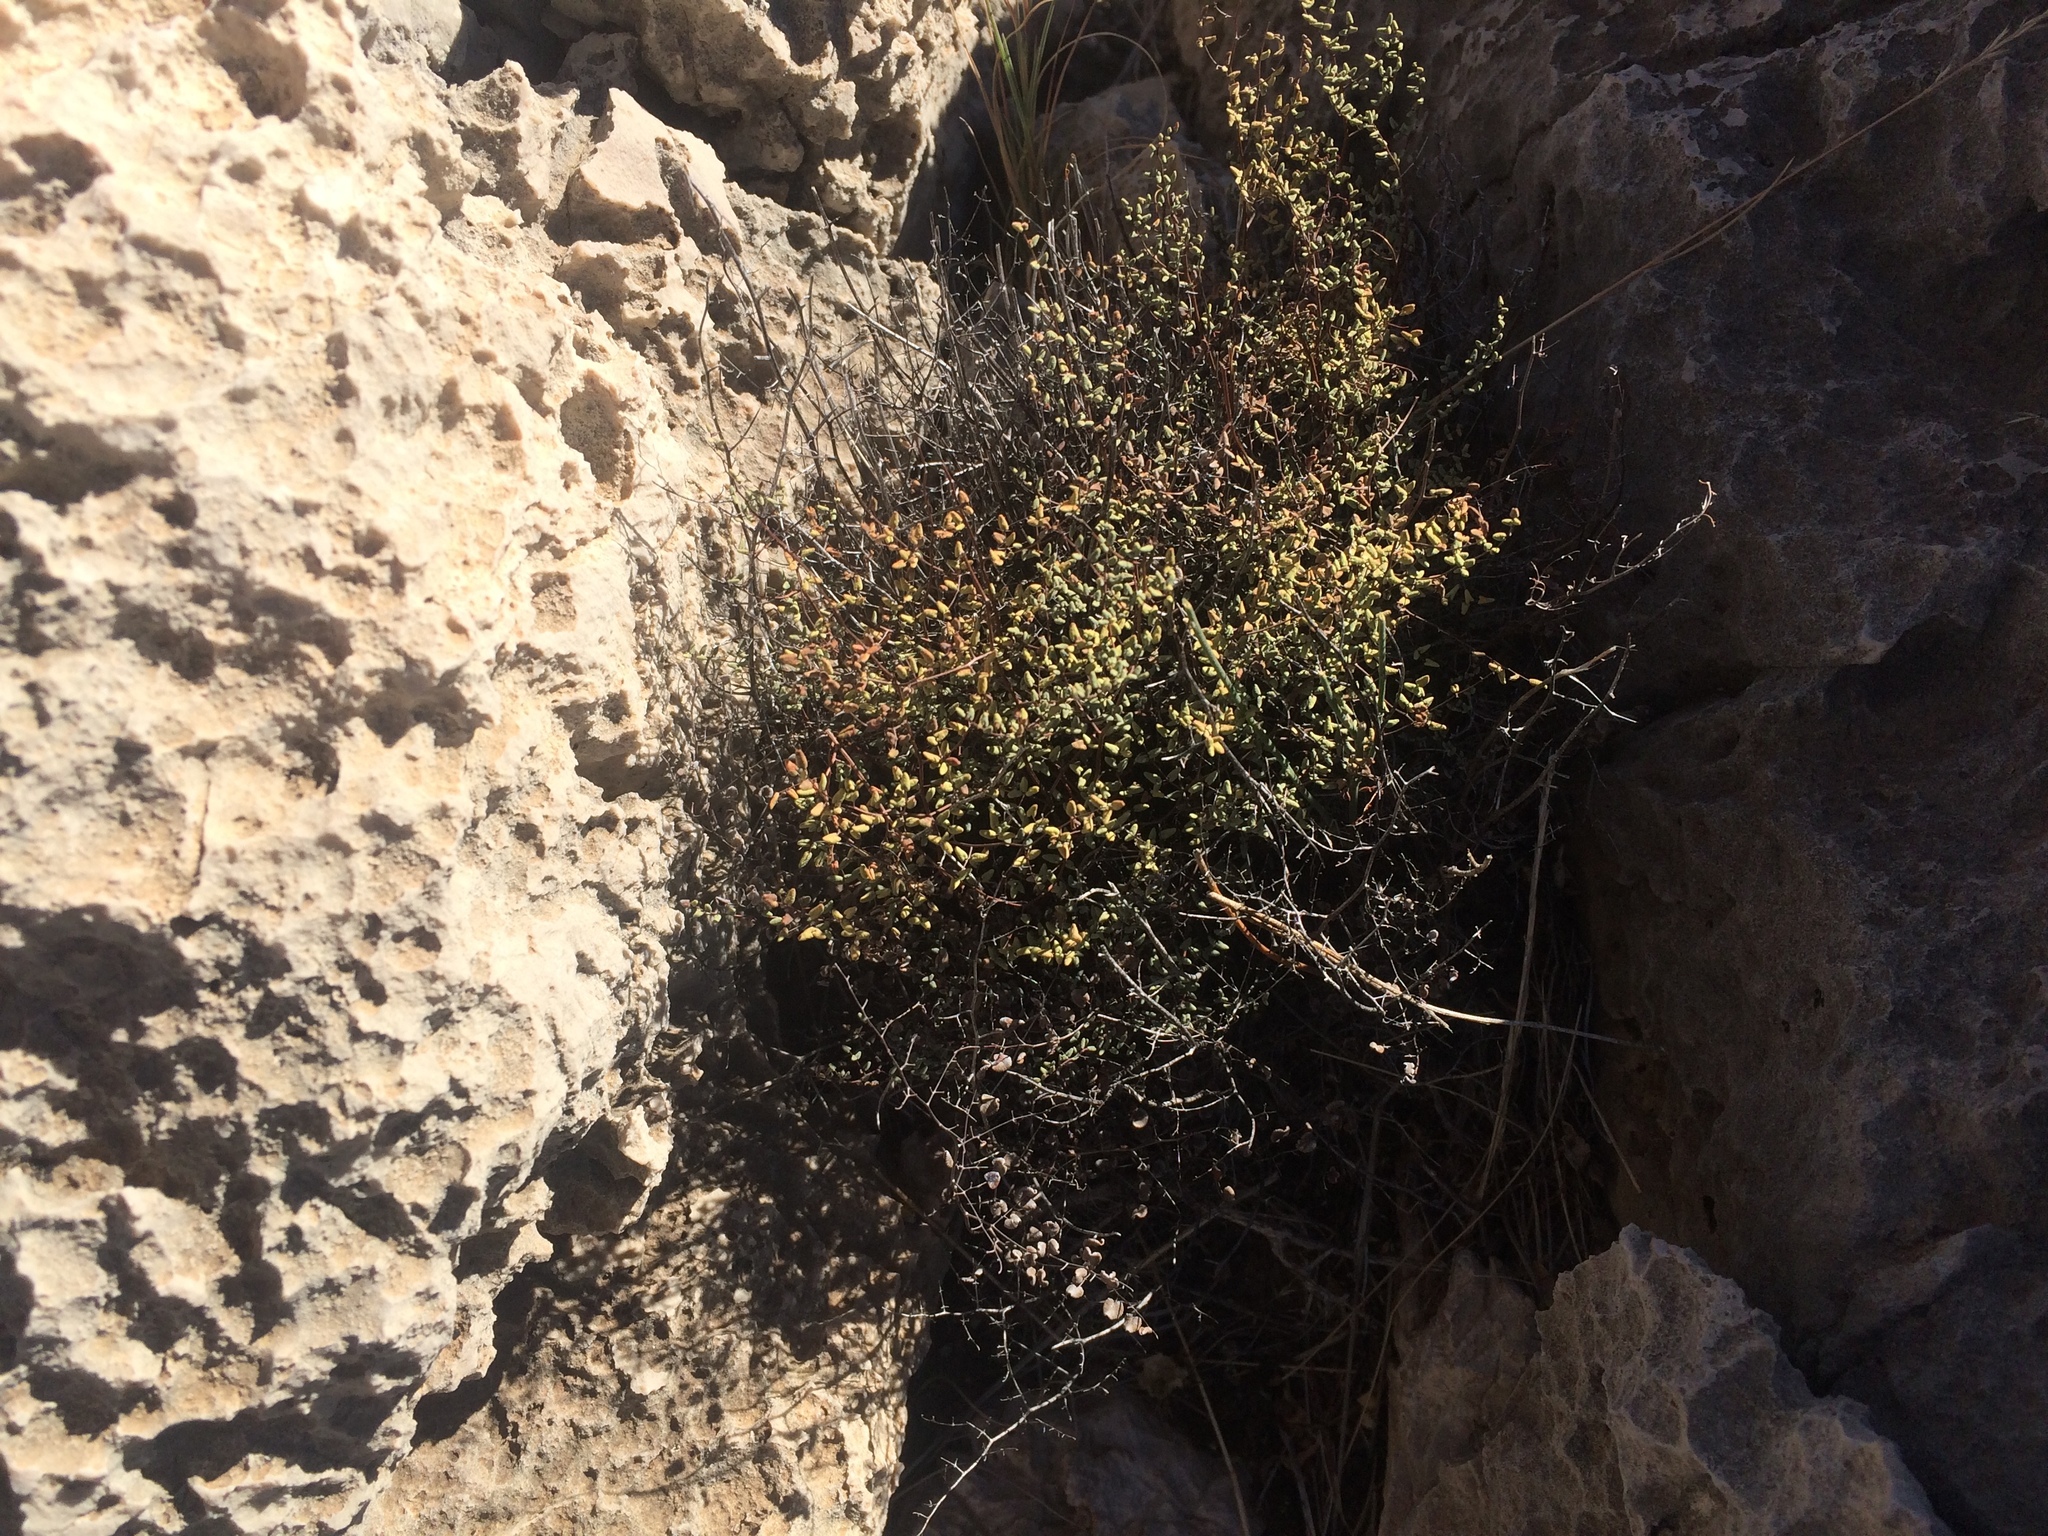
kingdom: Plantae
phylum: Tracheophyta
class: Polypodiopsida
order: Polypodiales
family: Pteridaceae
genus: Argyrochosma
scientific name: Argyrochosma microphylla
